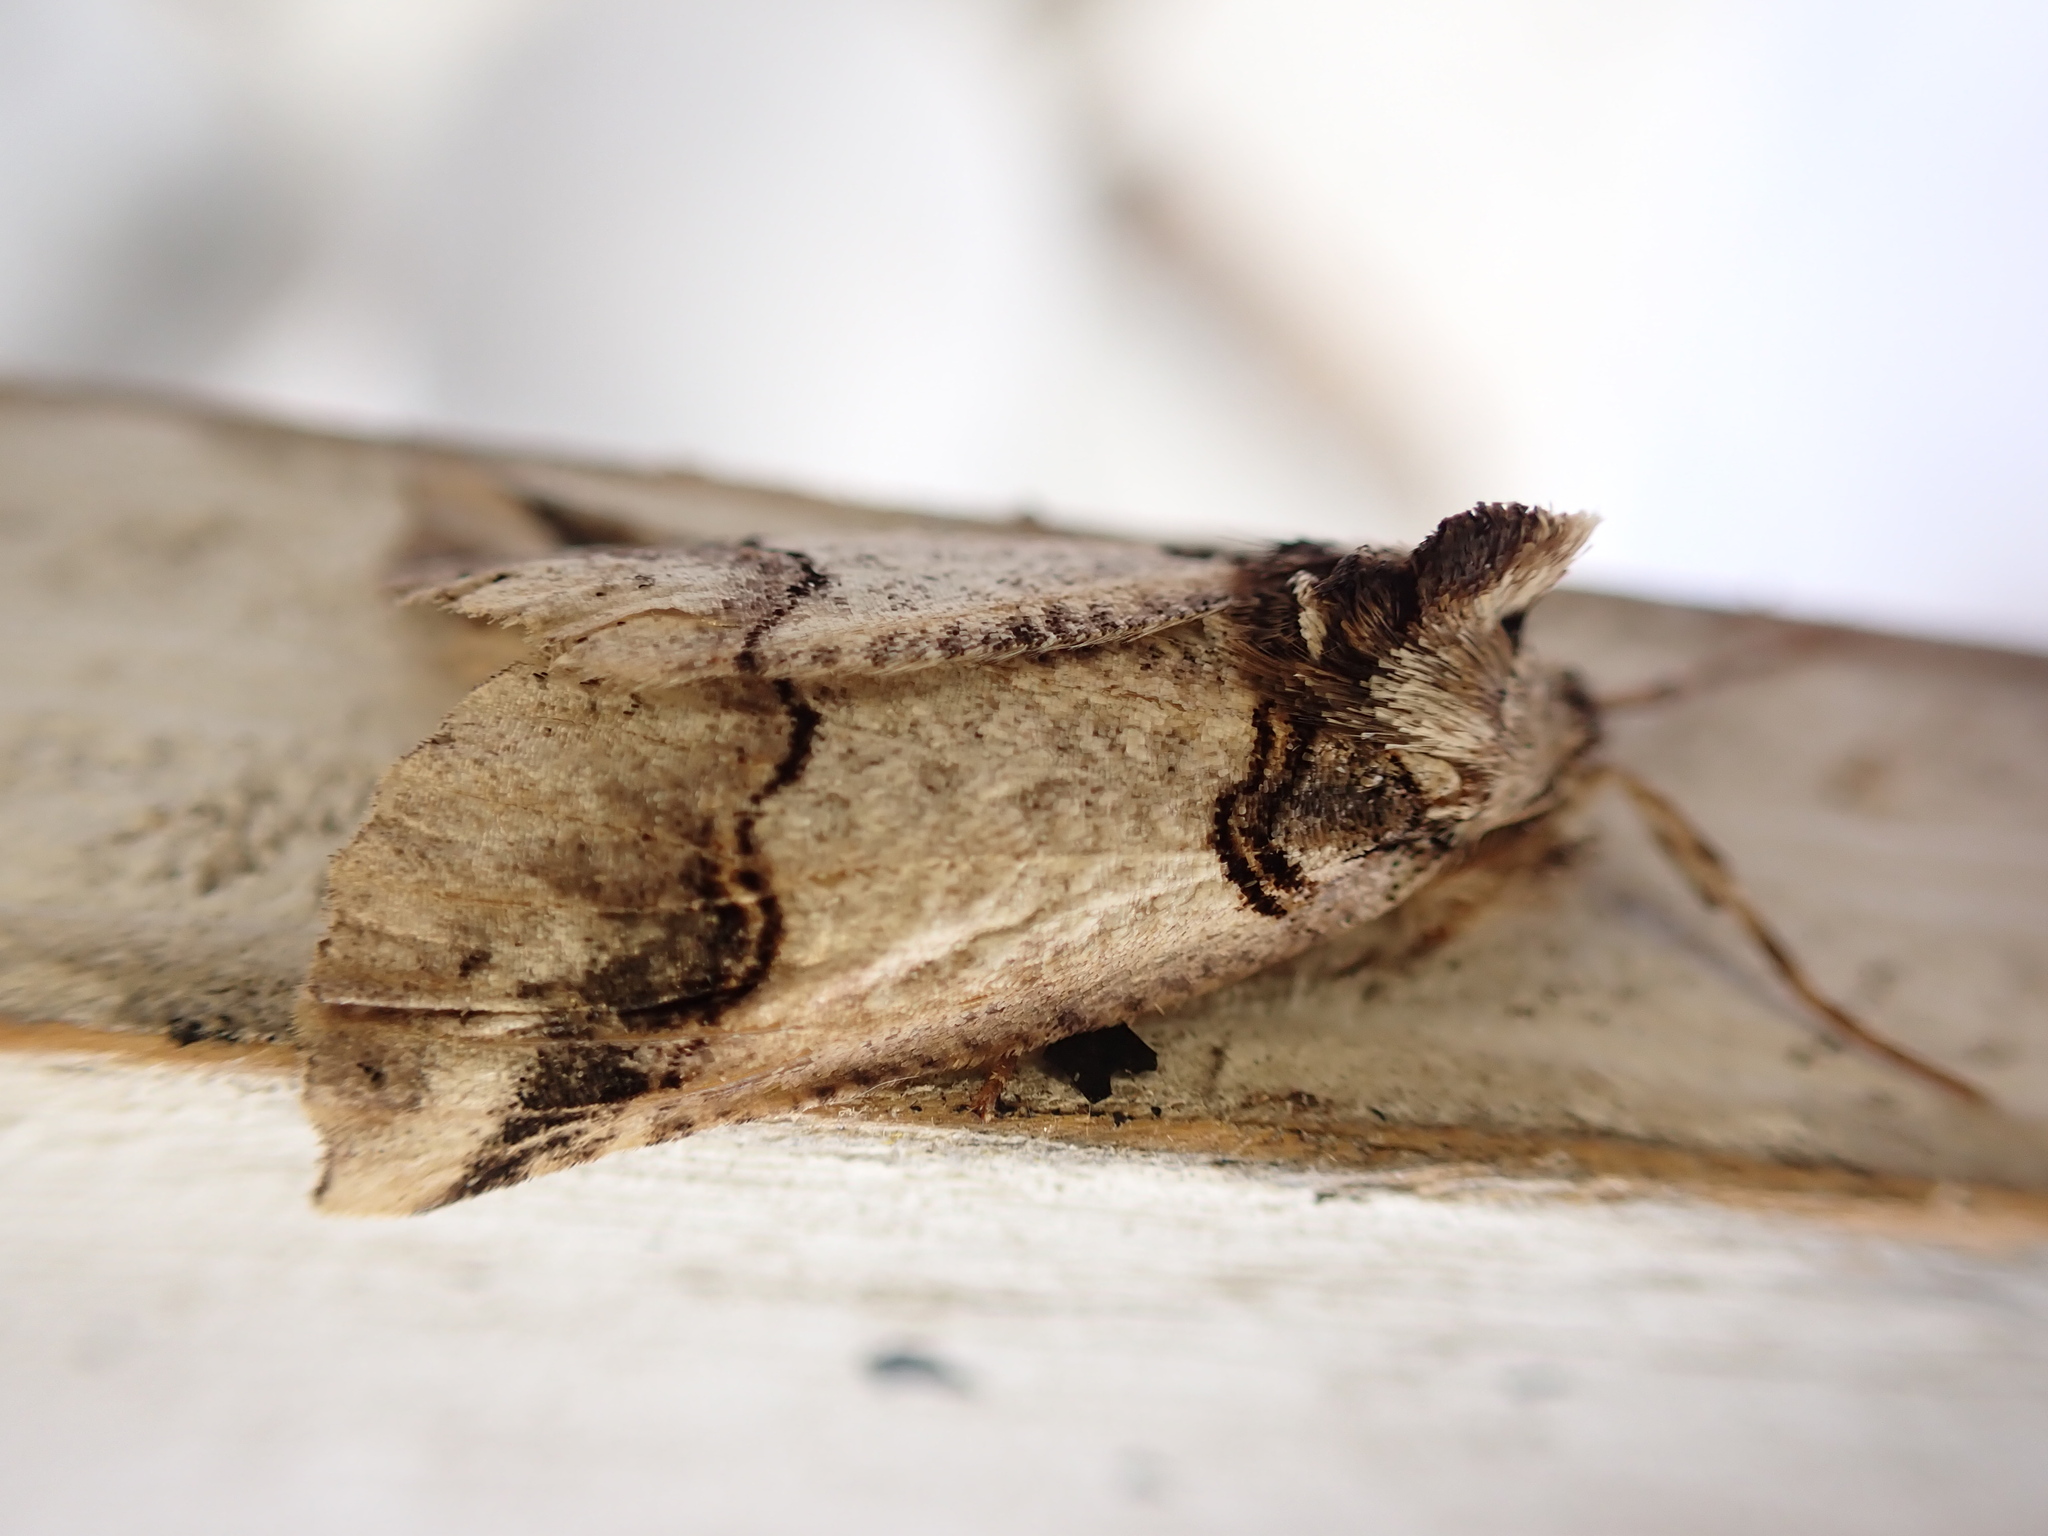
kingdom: Animalia
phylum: Arthropoda
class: Insecta
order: Lepidoptera
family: Geometridae
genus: Declana
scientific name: Declana
